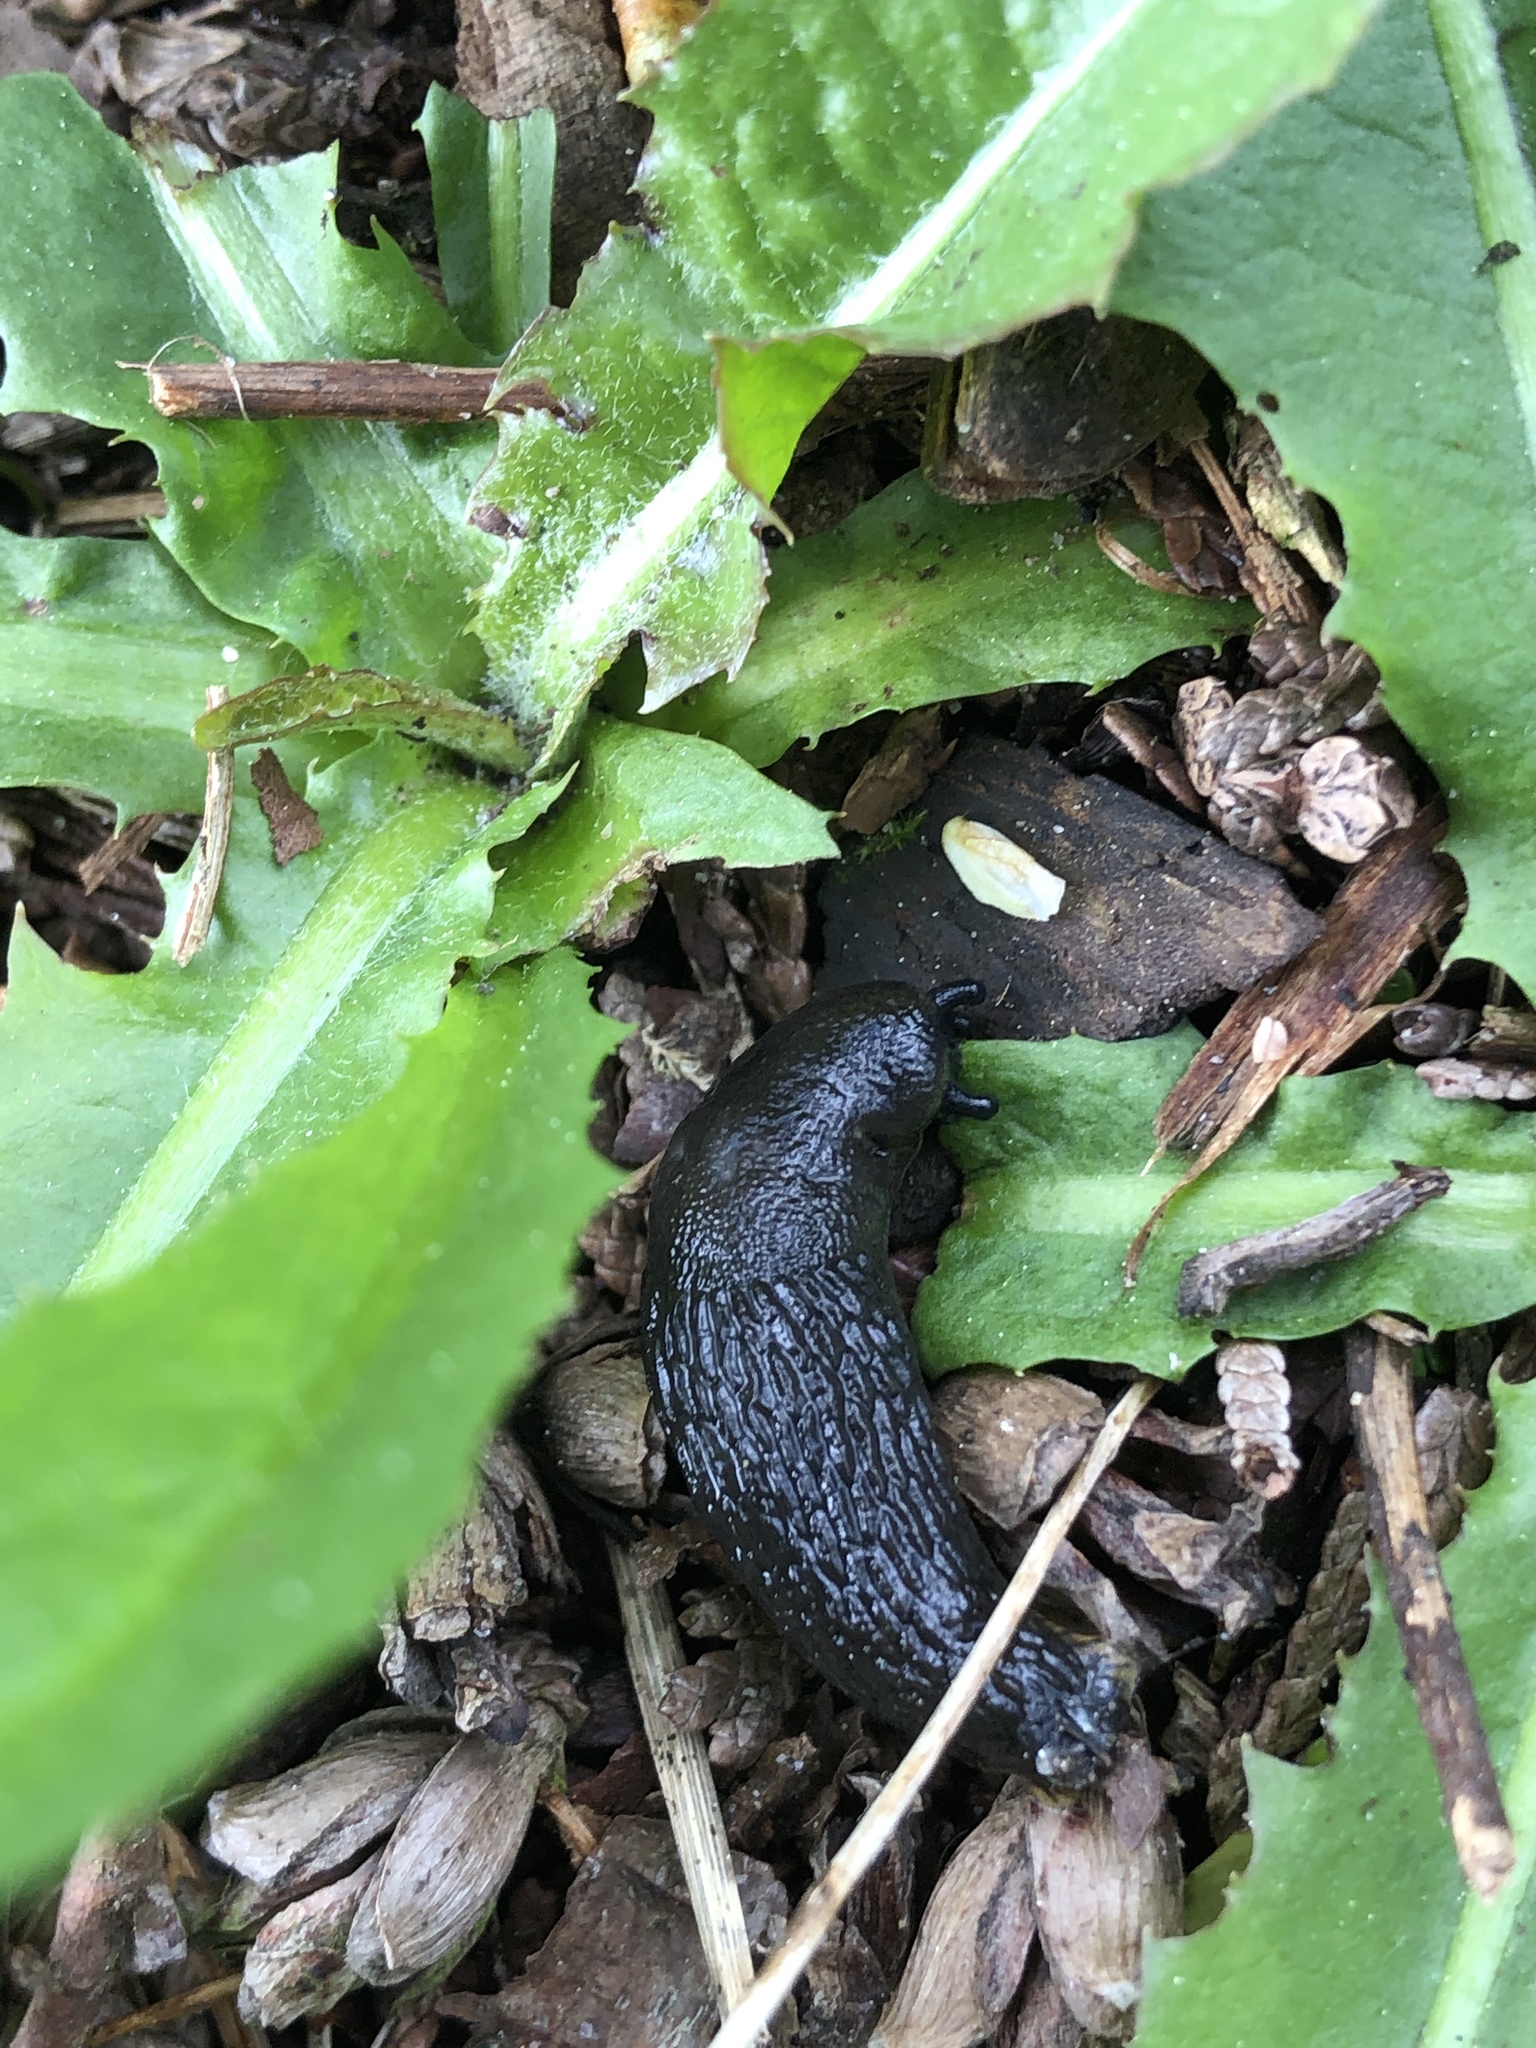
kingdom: Animalia
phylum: Mollusca
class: Gastropoda
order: Stylommatophora
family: Arionidae
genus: Arion
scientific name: Arion rufus
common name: Chocolate arion
